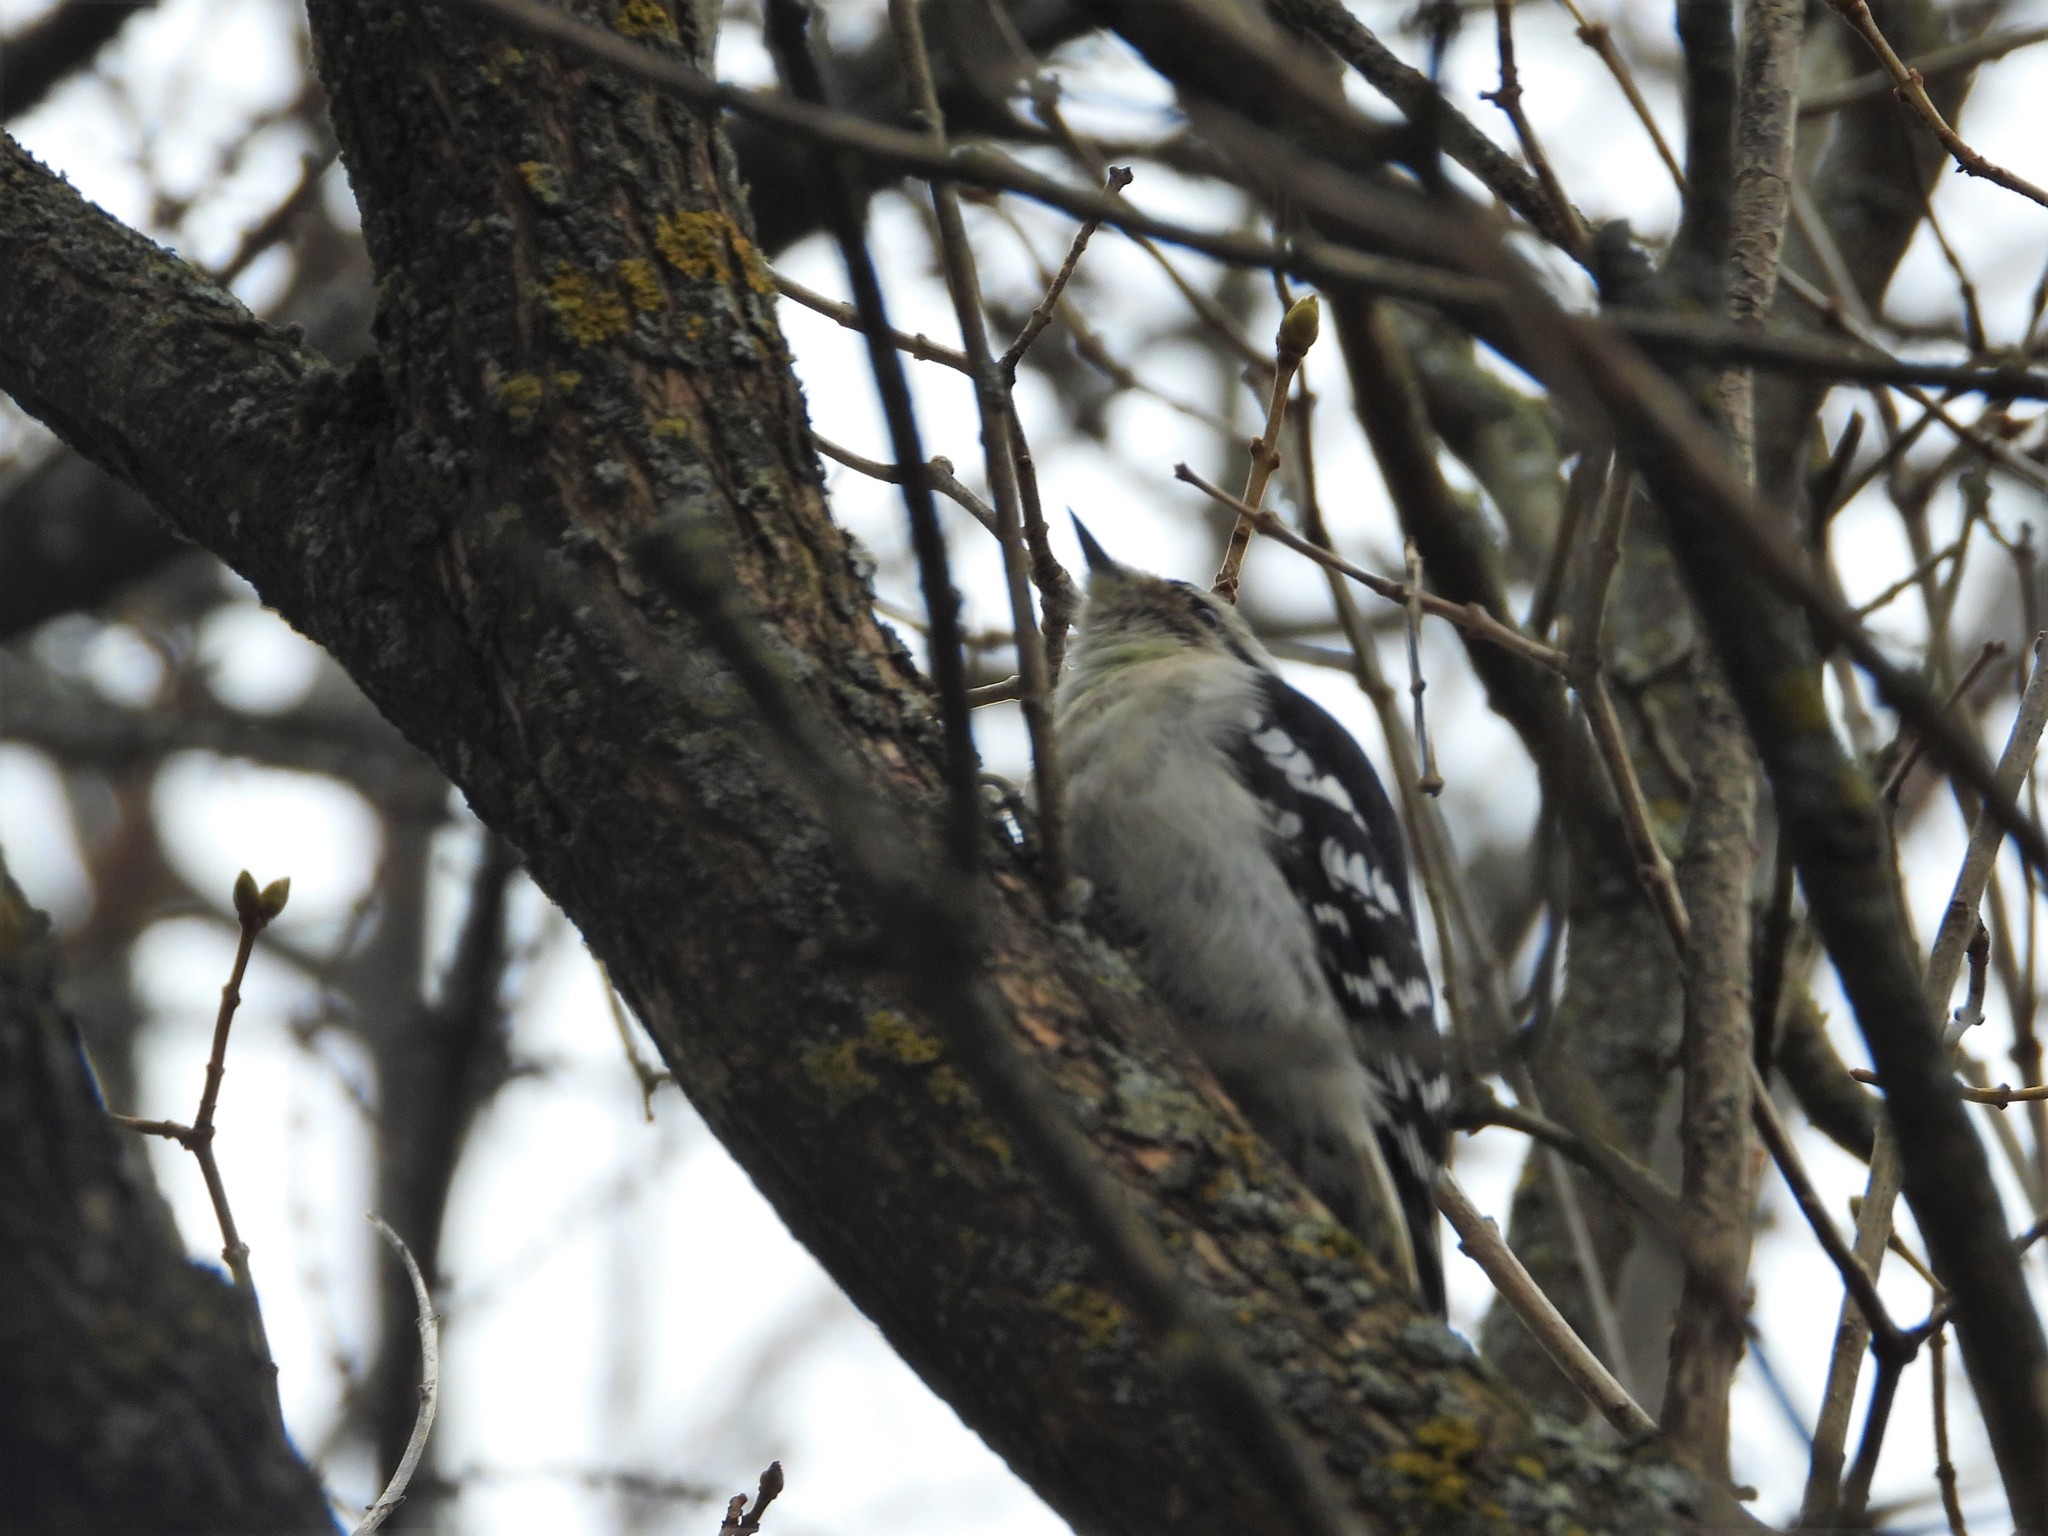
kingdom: Animalia
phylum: Chordata
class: Aves
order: Piciformes
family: Picidae
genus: Dryobates
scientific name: Dryobates pubescens
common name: Downy woodpecker
